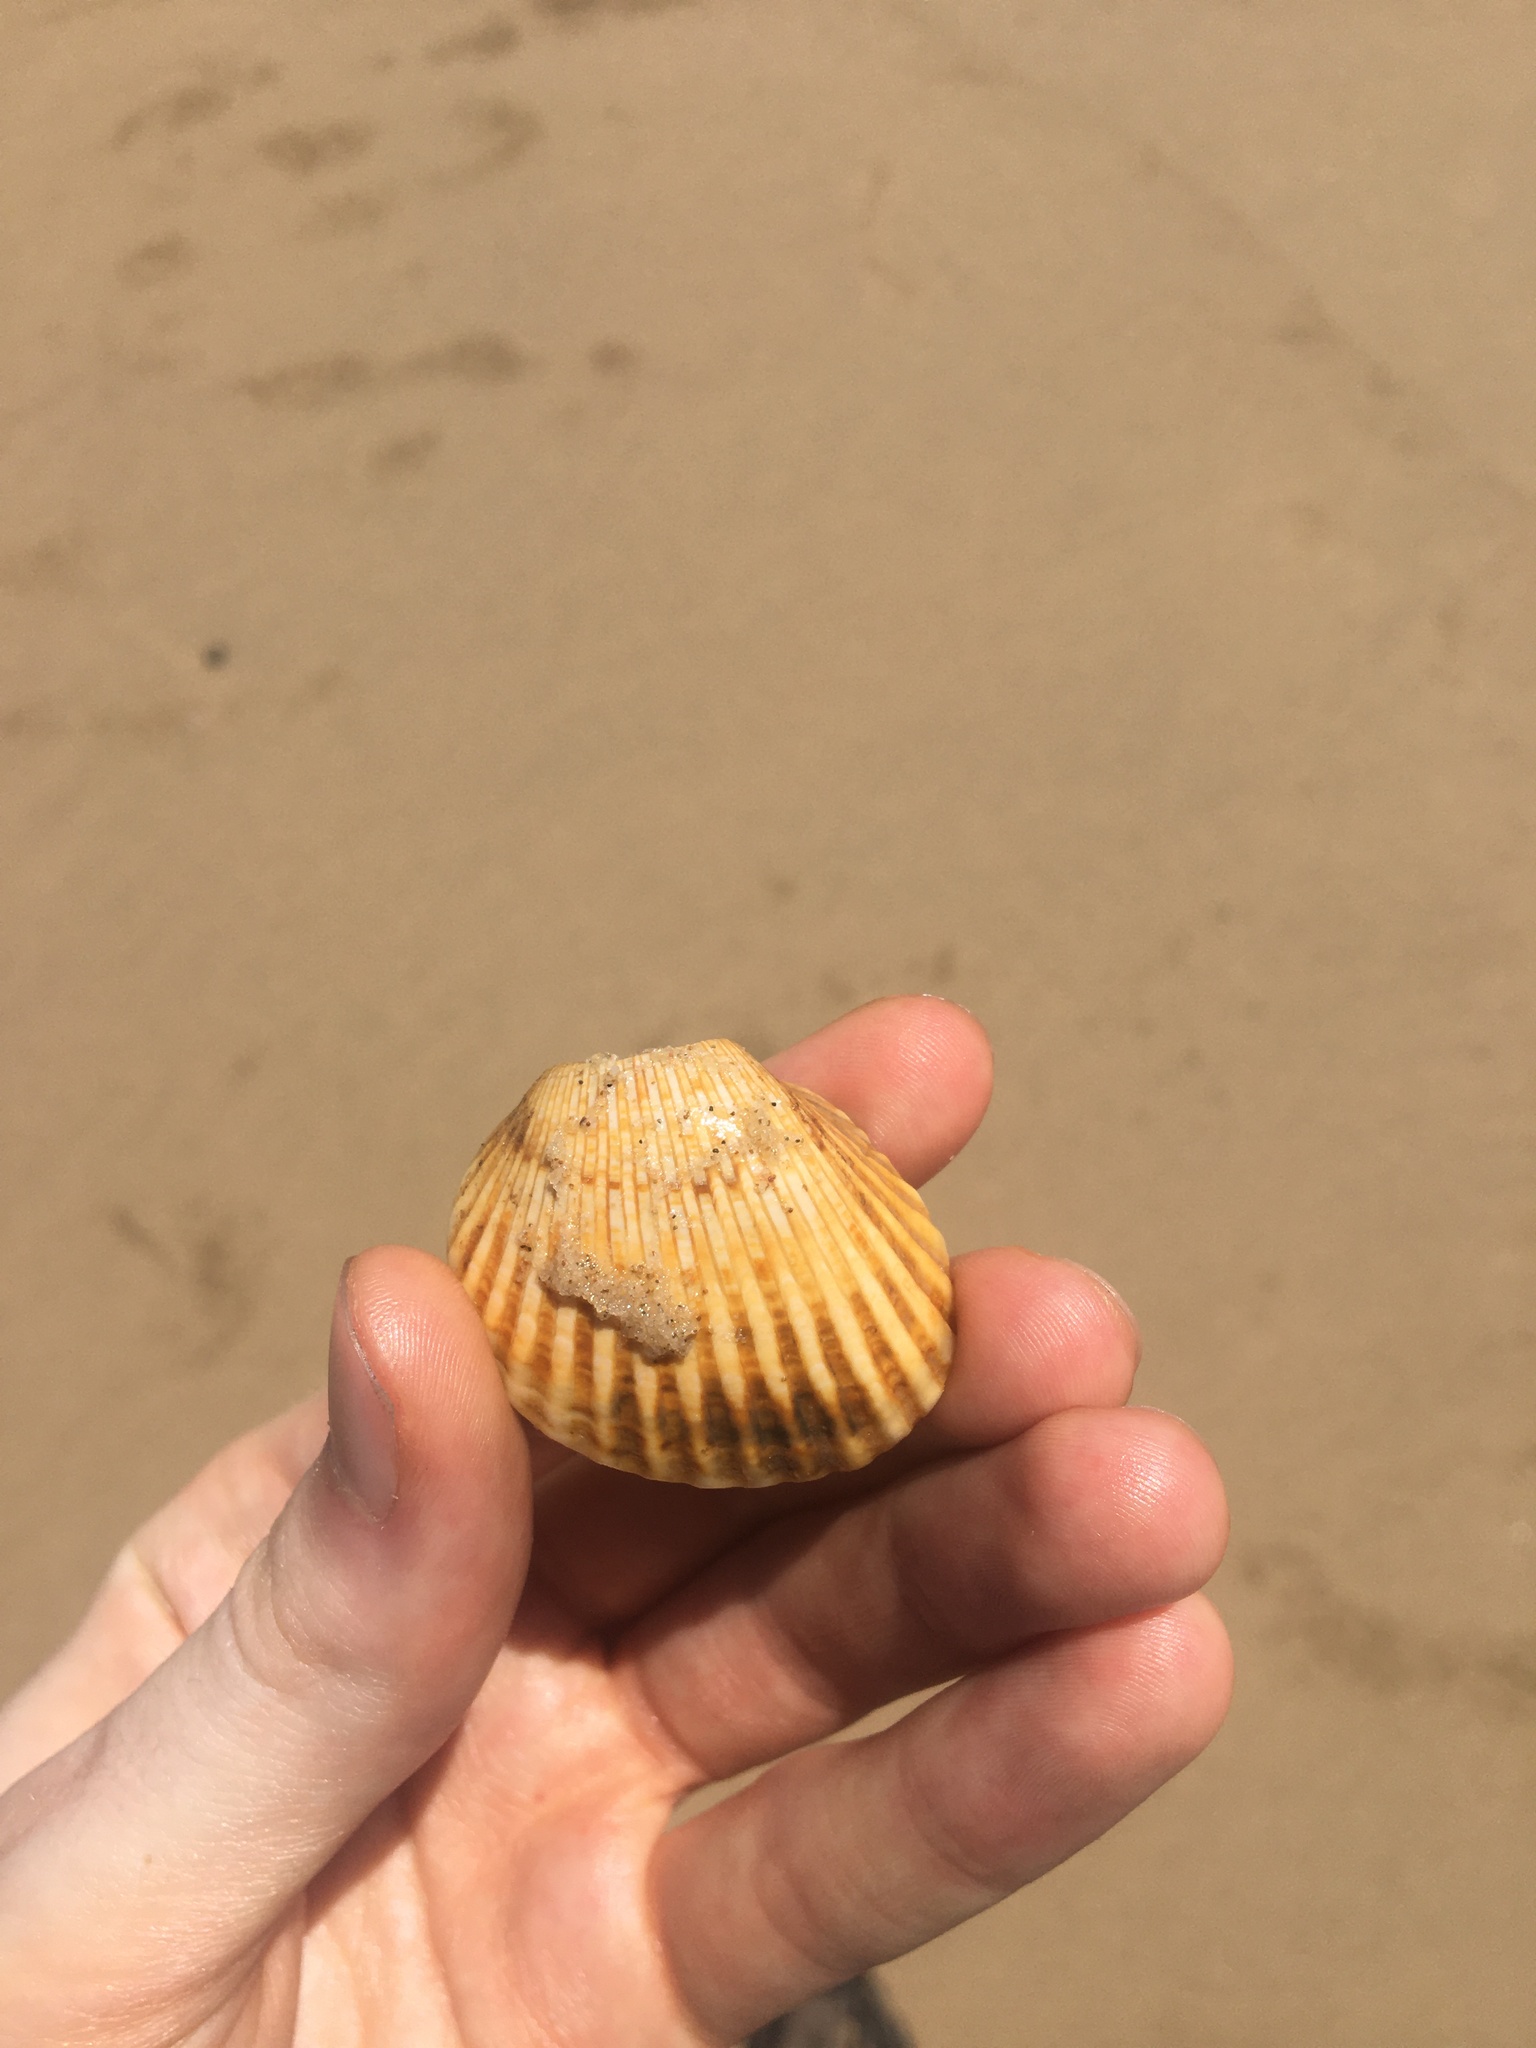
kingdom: Animalia
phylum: Mollusca
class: Bivalvia
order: Arcida
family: Arcidae
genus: Anadara
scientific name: Anadara trapezia
